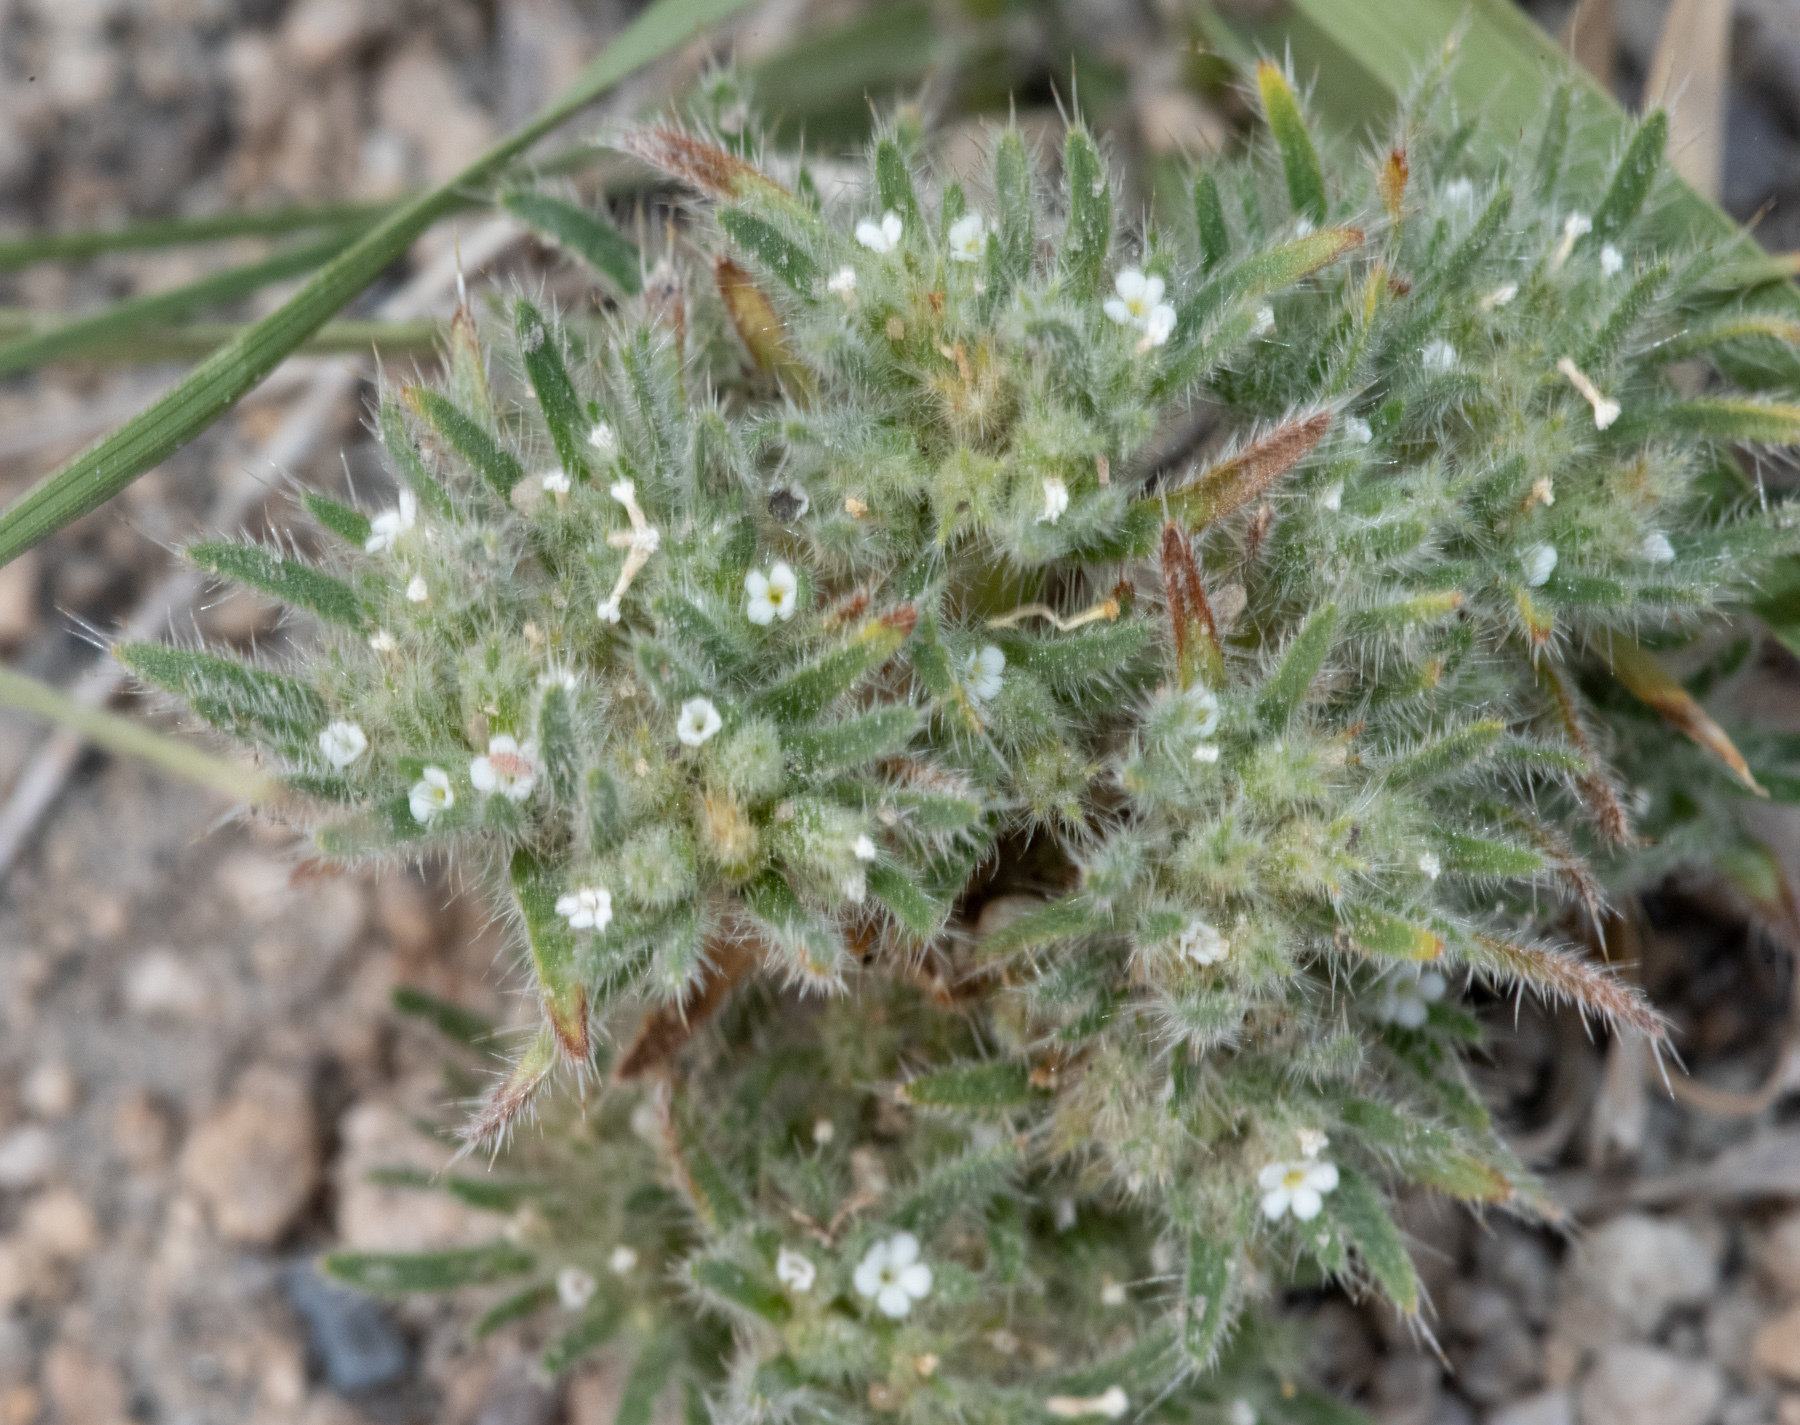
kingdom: Plantae
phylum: Tracheophyta
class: Magnoliopsida
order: Boraginales
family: Boraginaceae
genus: Greeneocharis
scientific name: Greeneocharis circumscissa
